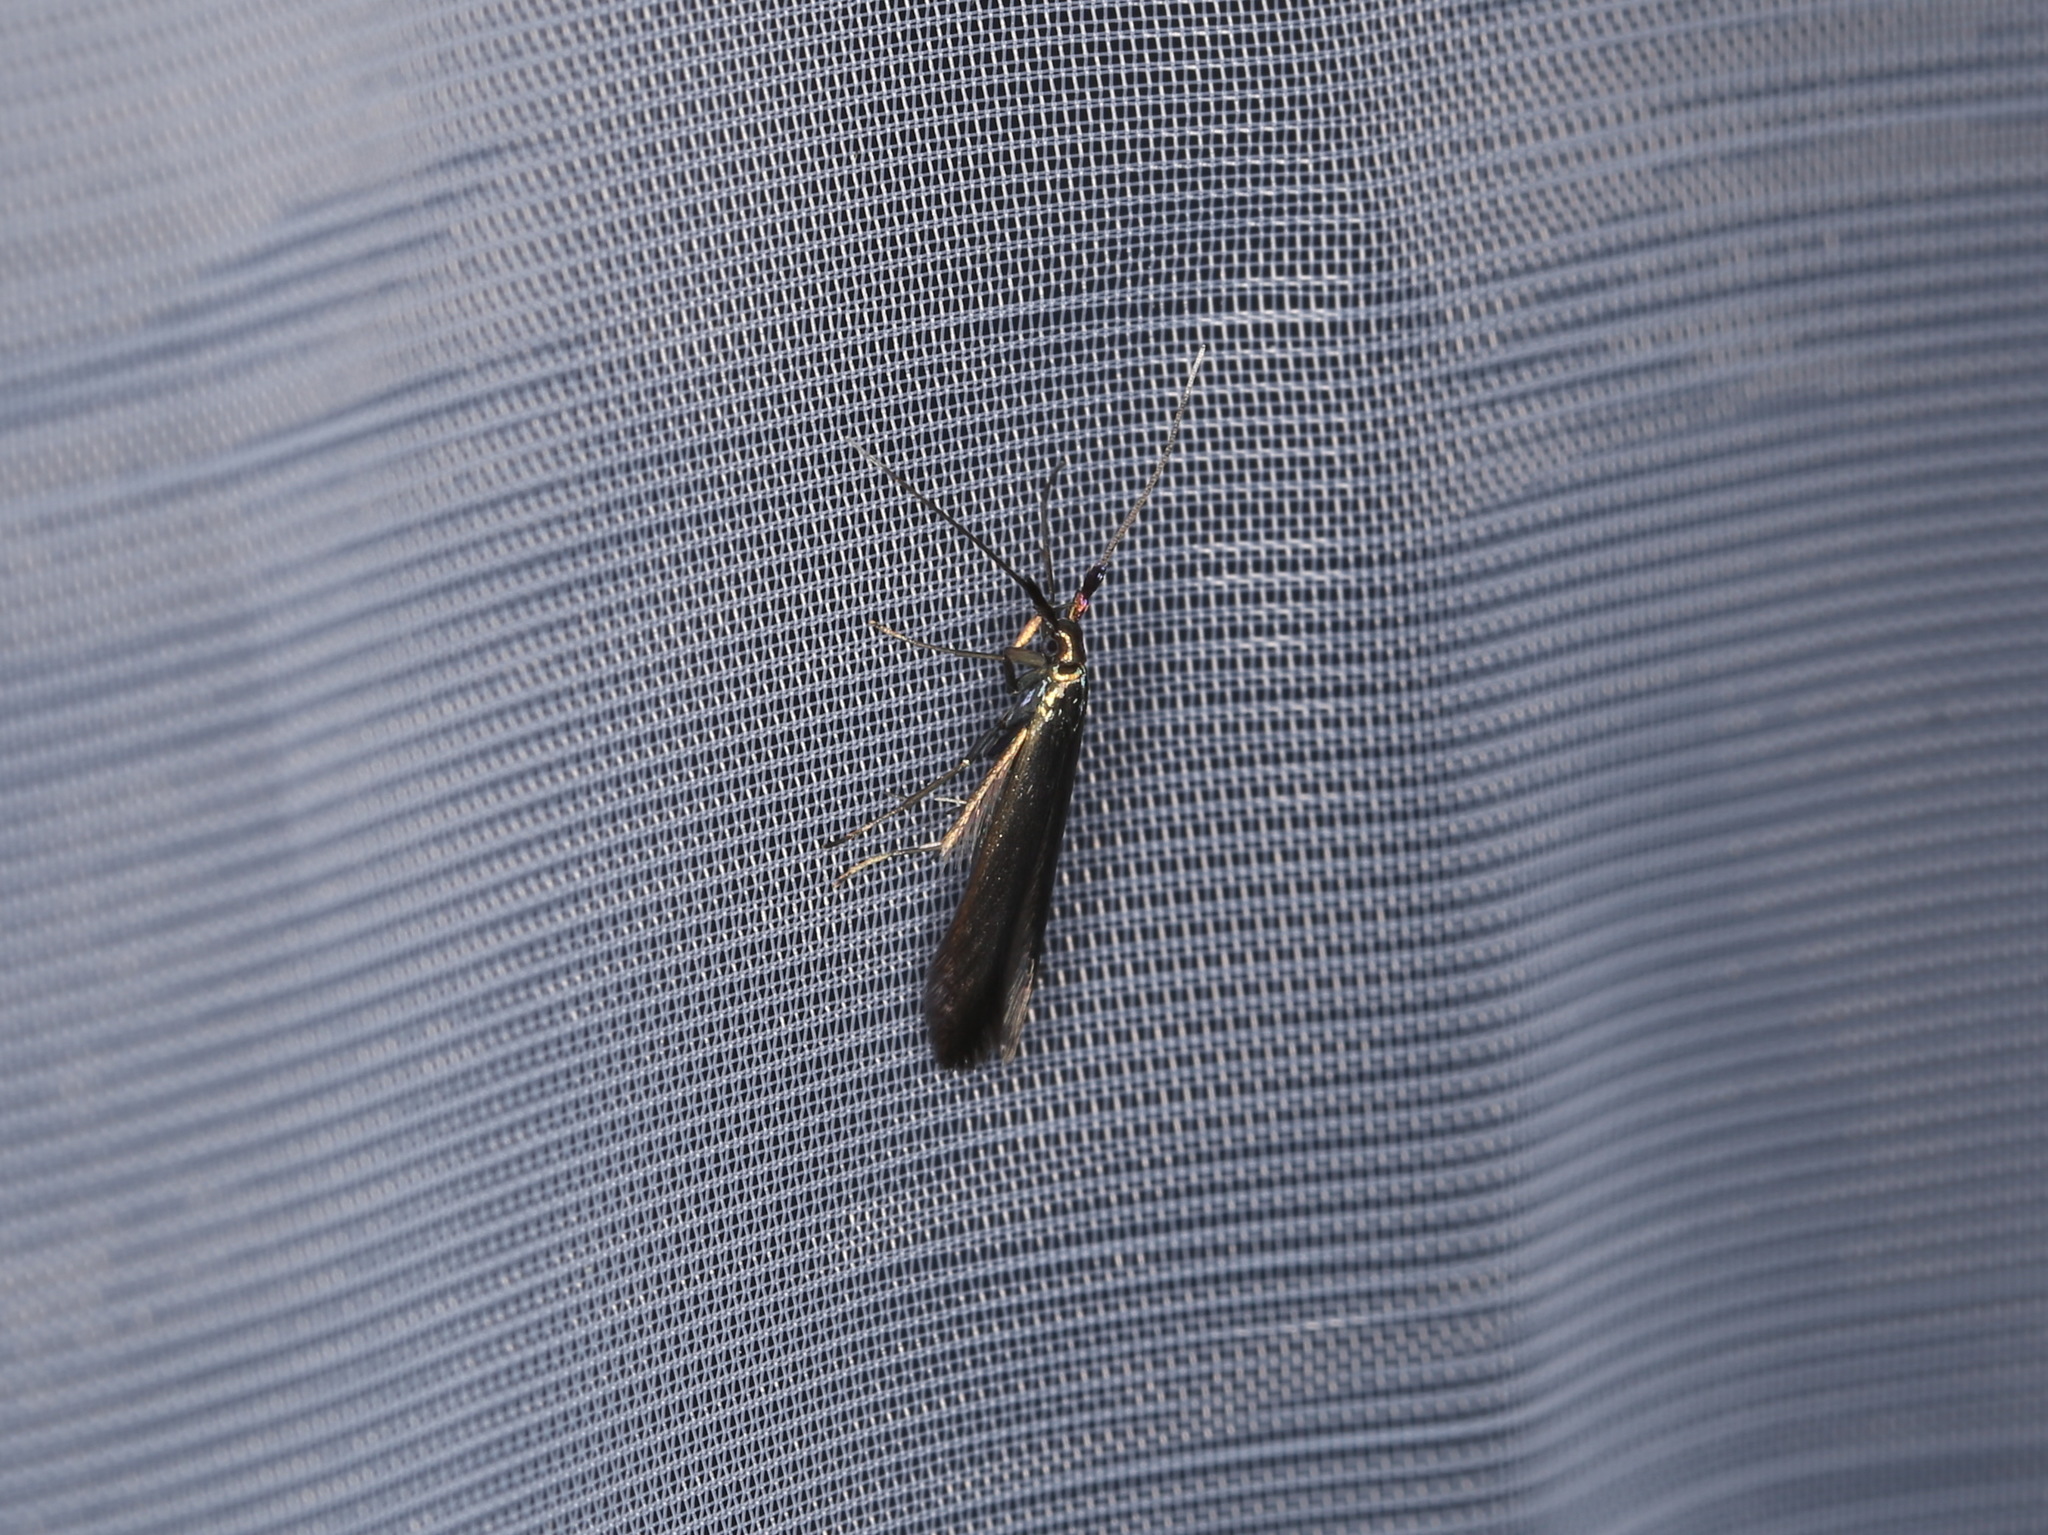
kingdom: Animalia
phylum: Arthropoda
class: Insecta
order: Lepidoptera
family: Coleophoridae
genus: Coleophora
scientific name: Coleophora deauratella
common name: Red-clover case-bearer
